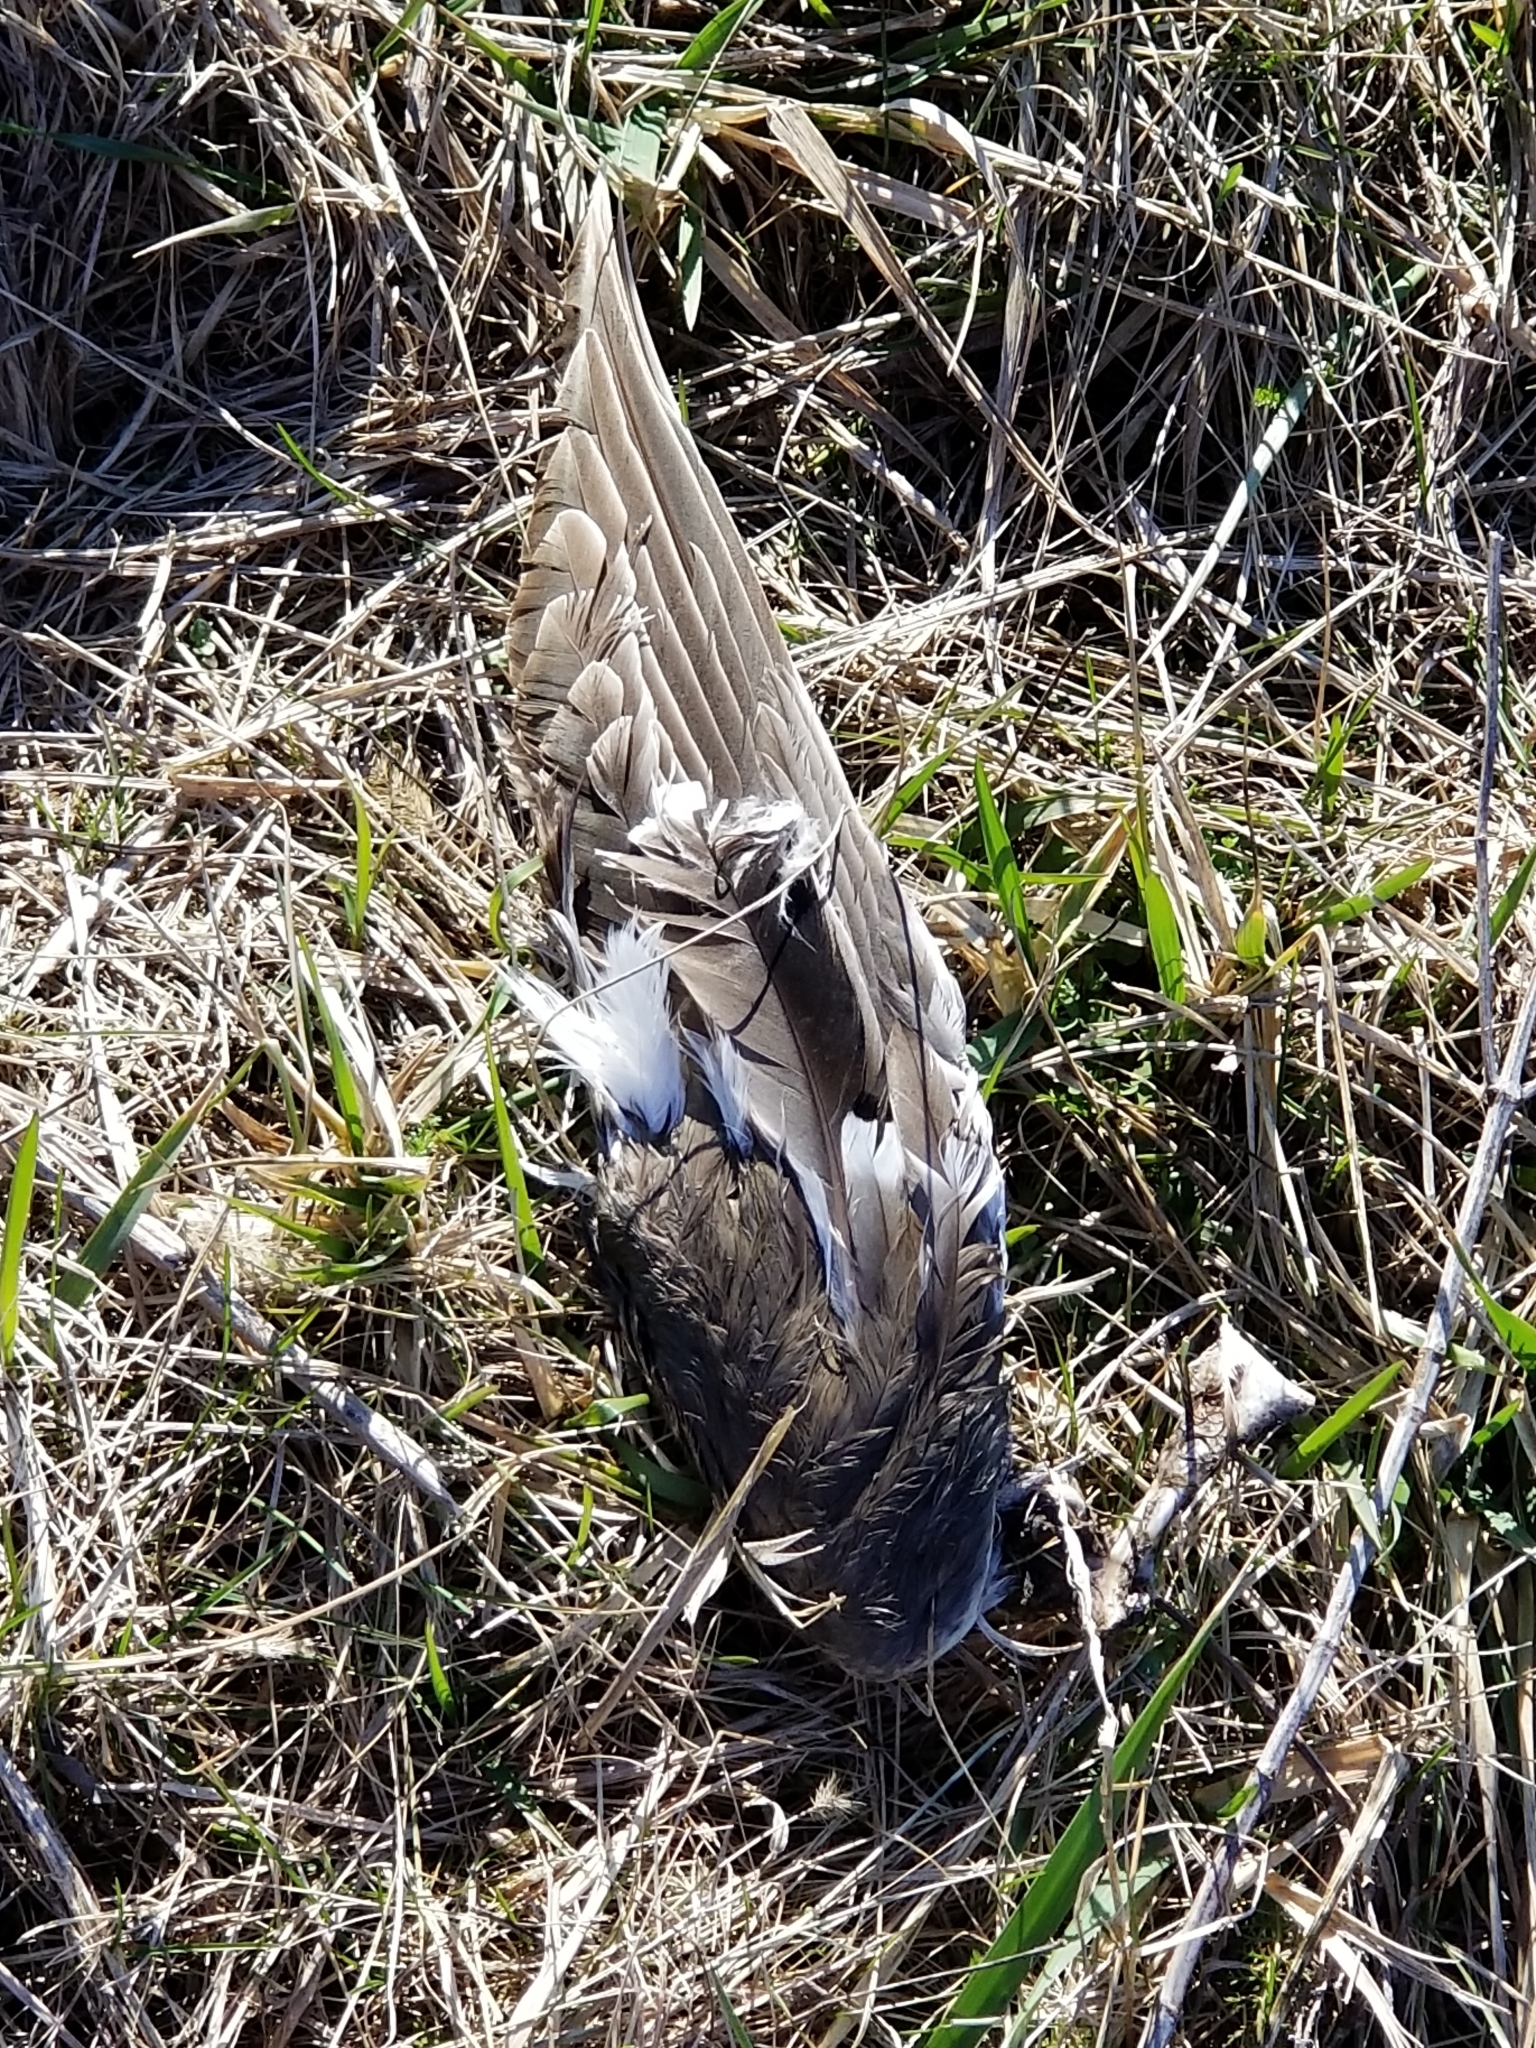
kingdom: Animalia
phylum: Chordata
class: Aves
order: Anseriformes
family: Anatidae
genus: Anas
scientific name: Anas platyrhynchos
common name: Mallard
